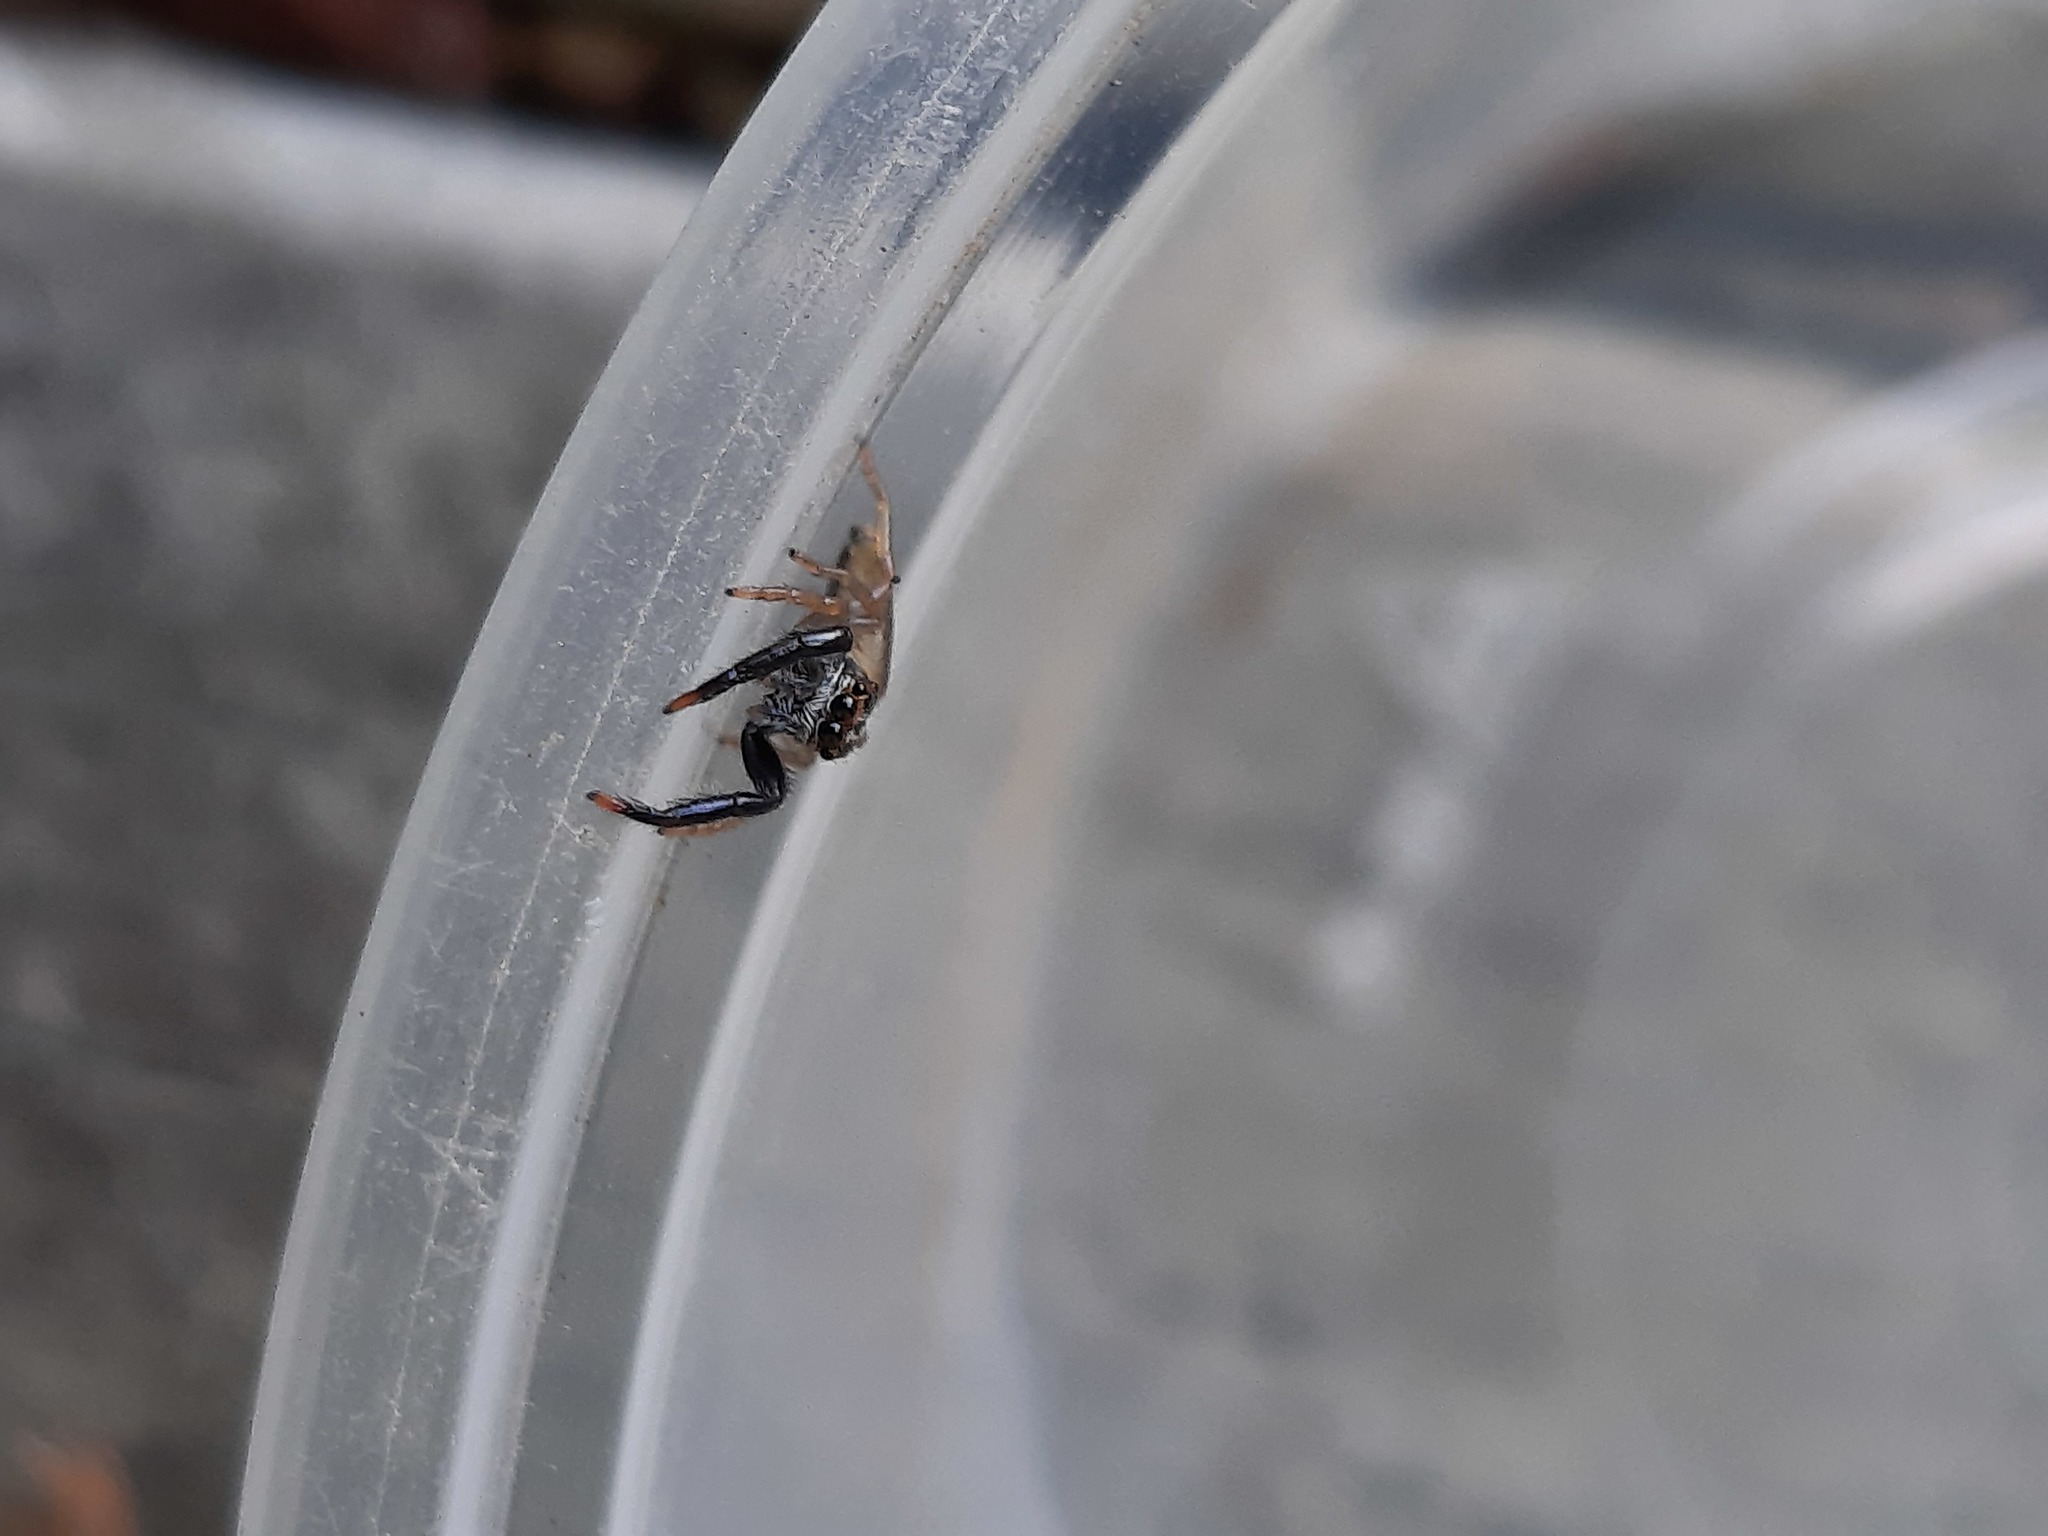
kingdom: Animalia
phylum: Arthropoda
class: Arachnida
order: Araneae
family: Salticidae
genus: Trite
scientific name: Trite planiceps
